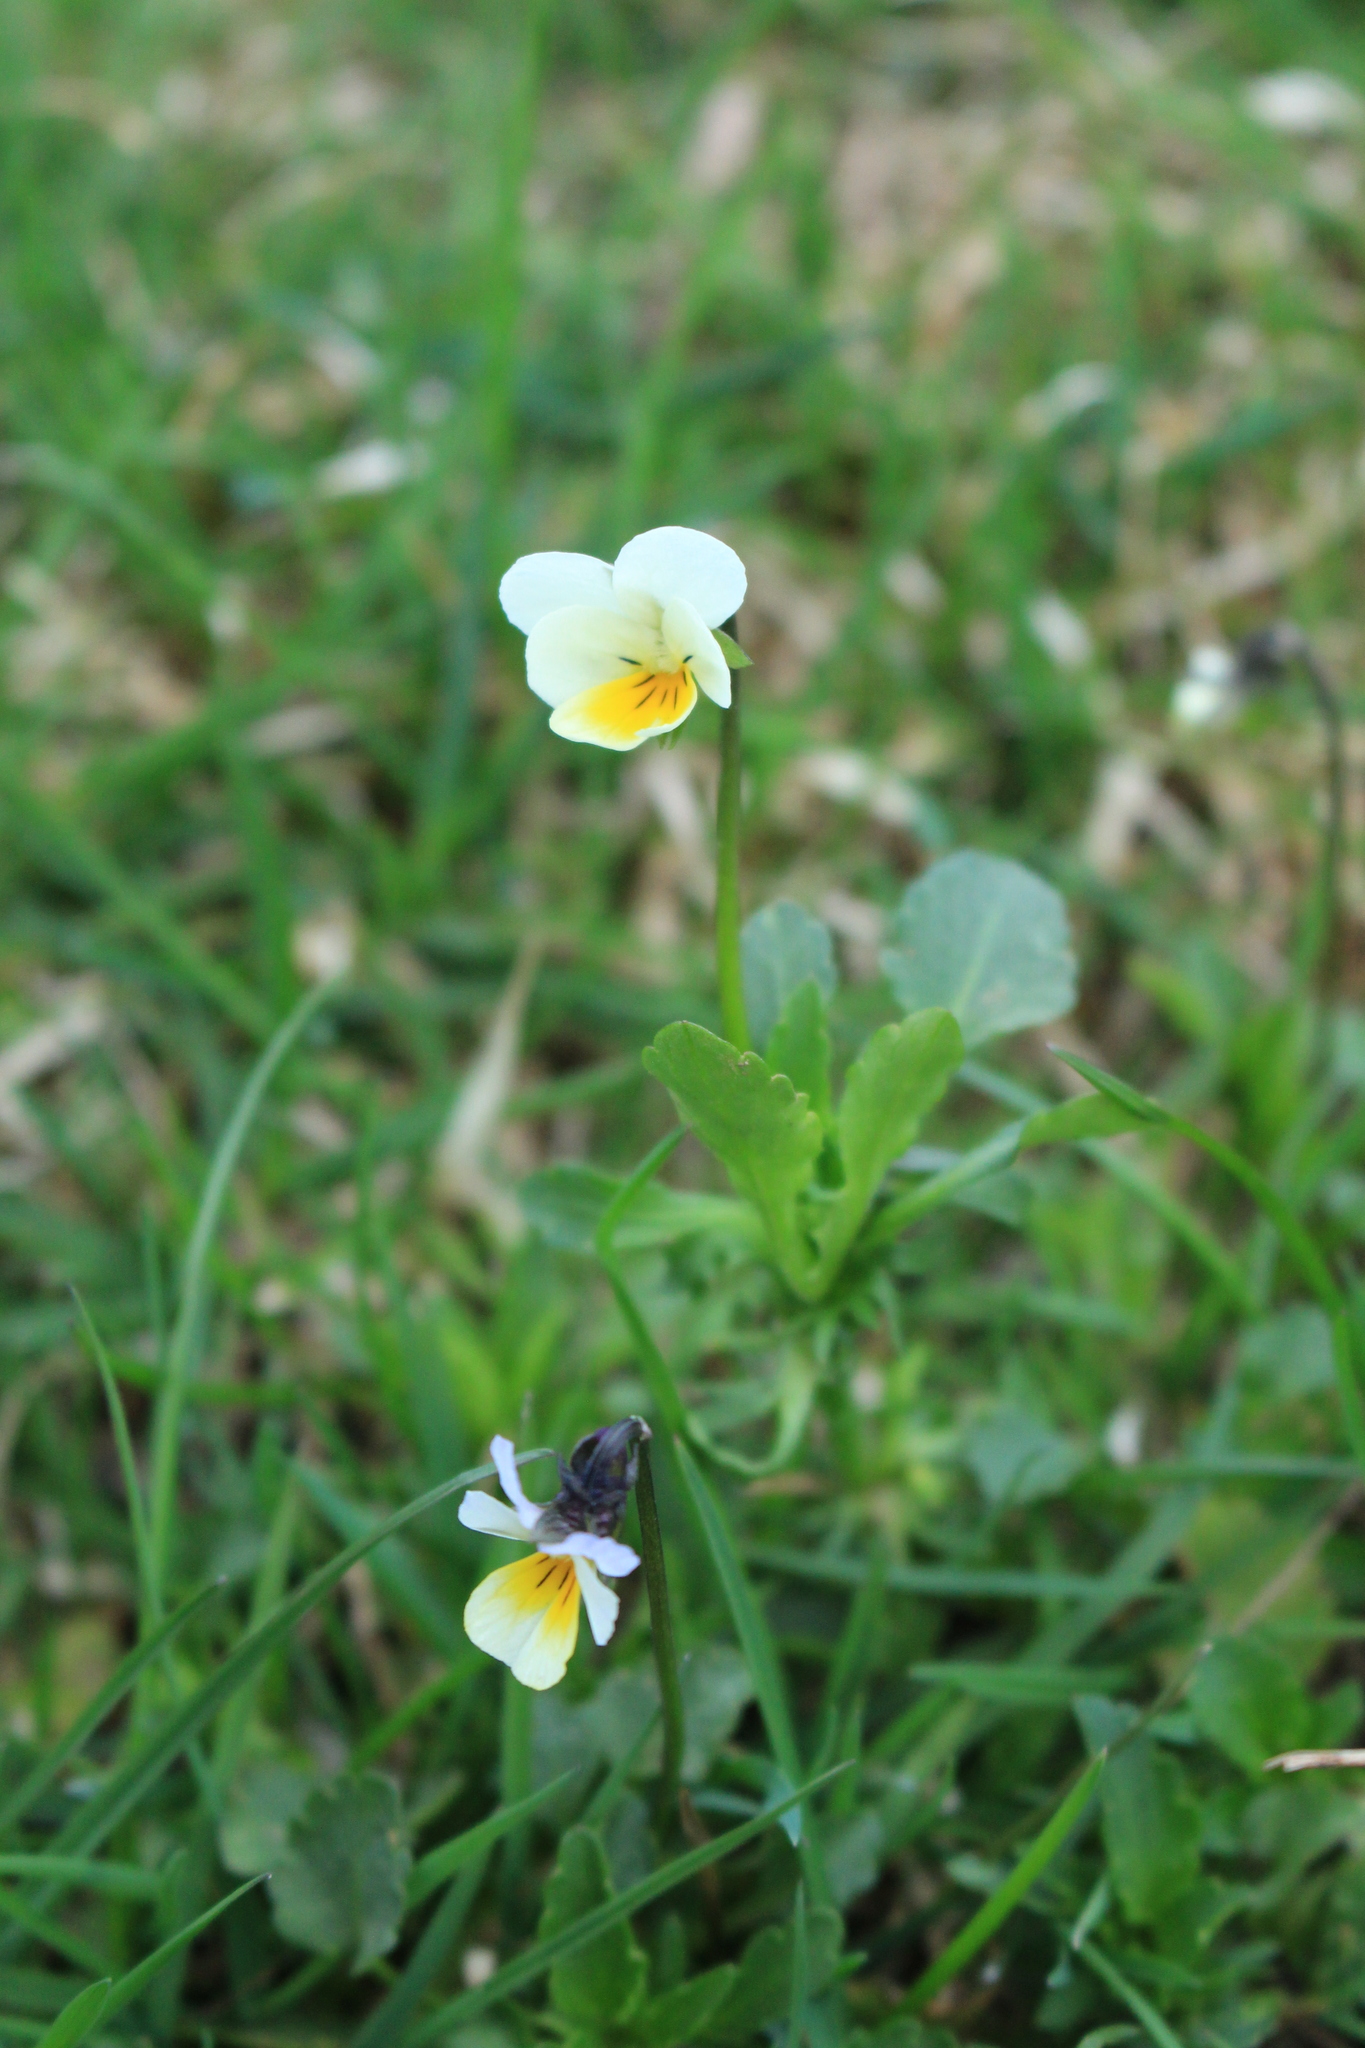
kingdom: Plantae
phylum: Tracheophyta
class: Magnoliopsida
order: Malpighiales
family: Violaceae
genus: Viola
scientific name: Viola arvensis
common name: Field pansy
